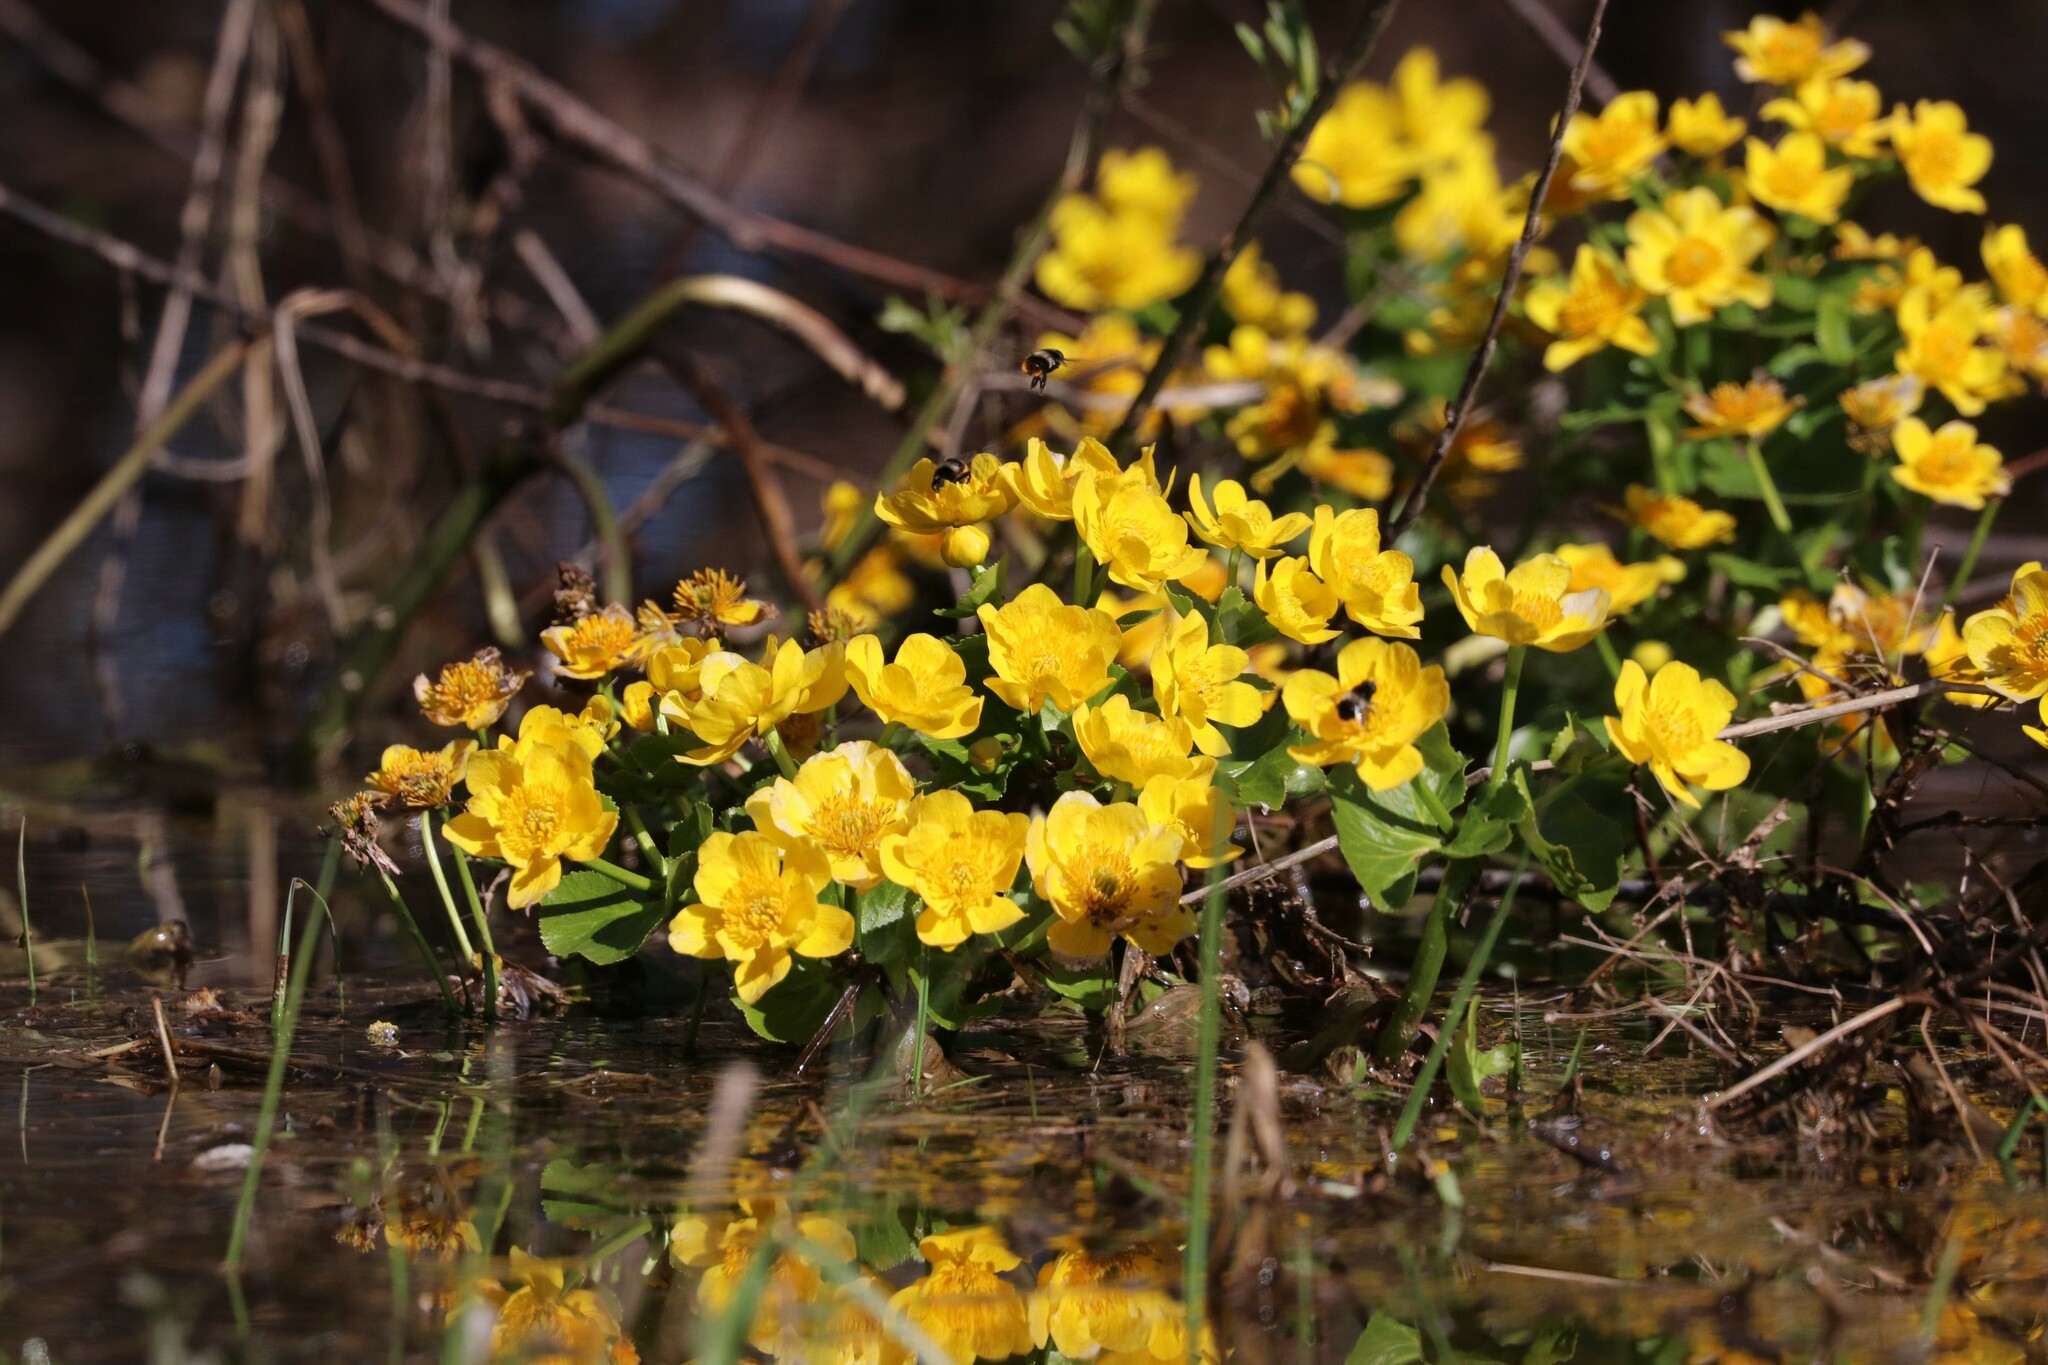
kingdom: Plantae
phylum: Tracheophyta
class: Magnoliopsida
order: Ranunculales
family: Ranunculaceae
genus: Caltha
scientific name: Caltha palustris
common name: Marsh marigold
